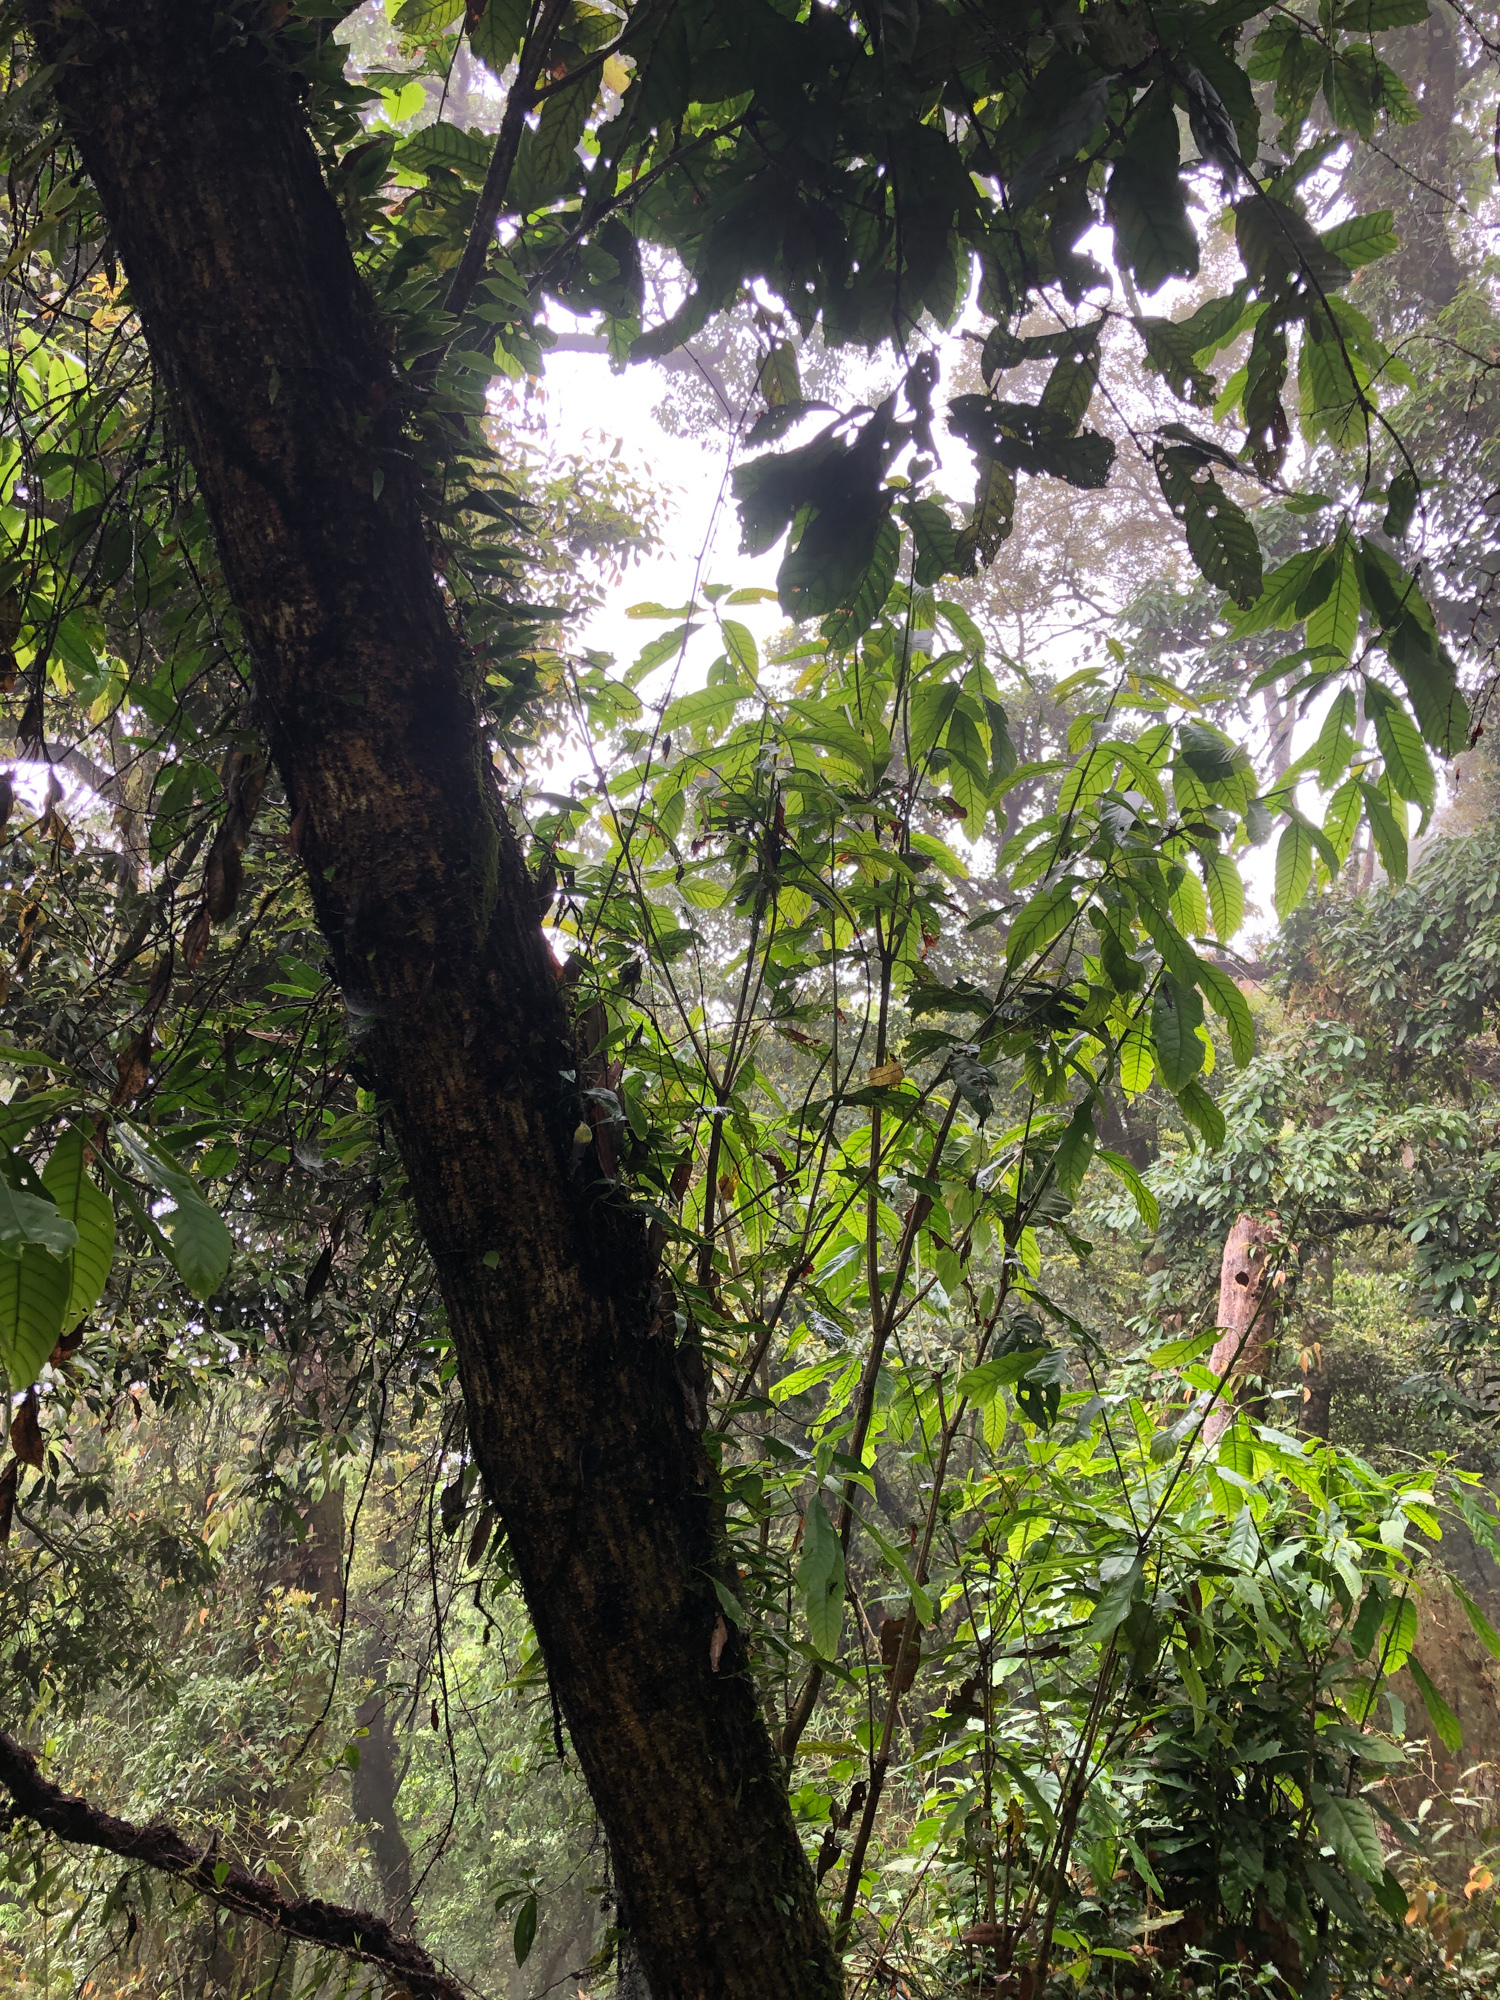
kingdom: Plantae
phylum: Tracheophyta
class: Magnoliopsida
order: Fagales
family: Fagaceae
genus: Lithocarpus
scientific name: Lithocarpus kawakamii
